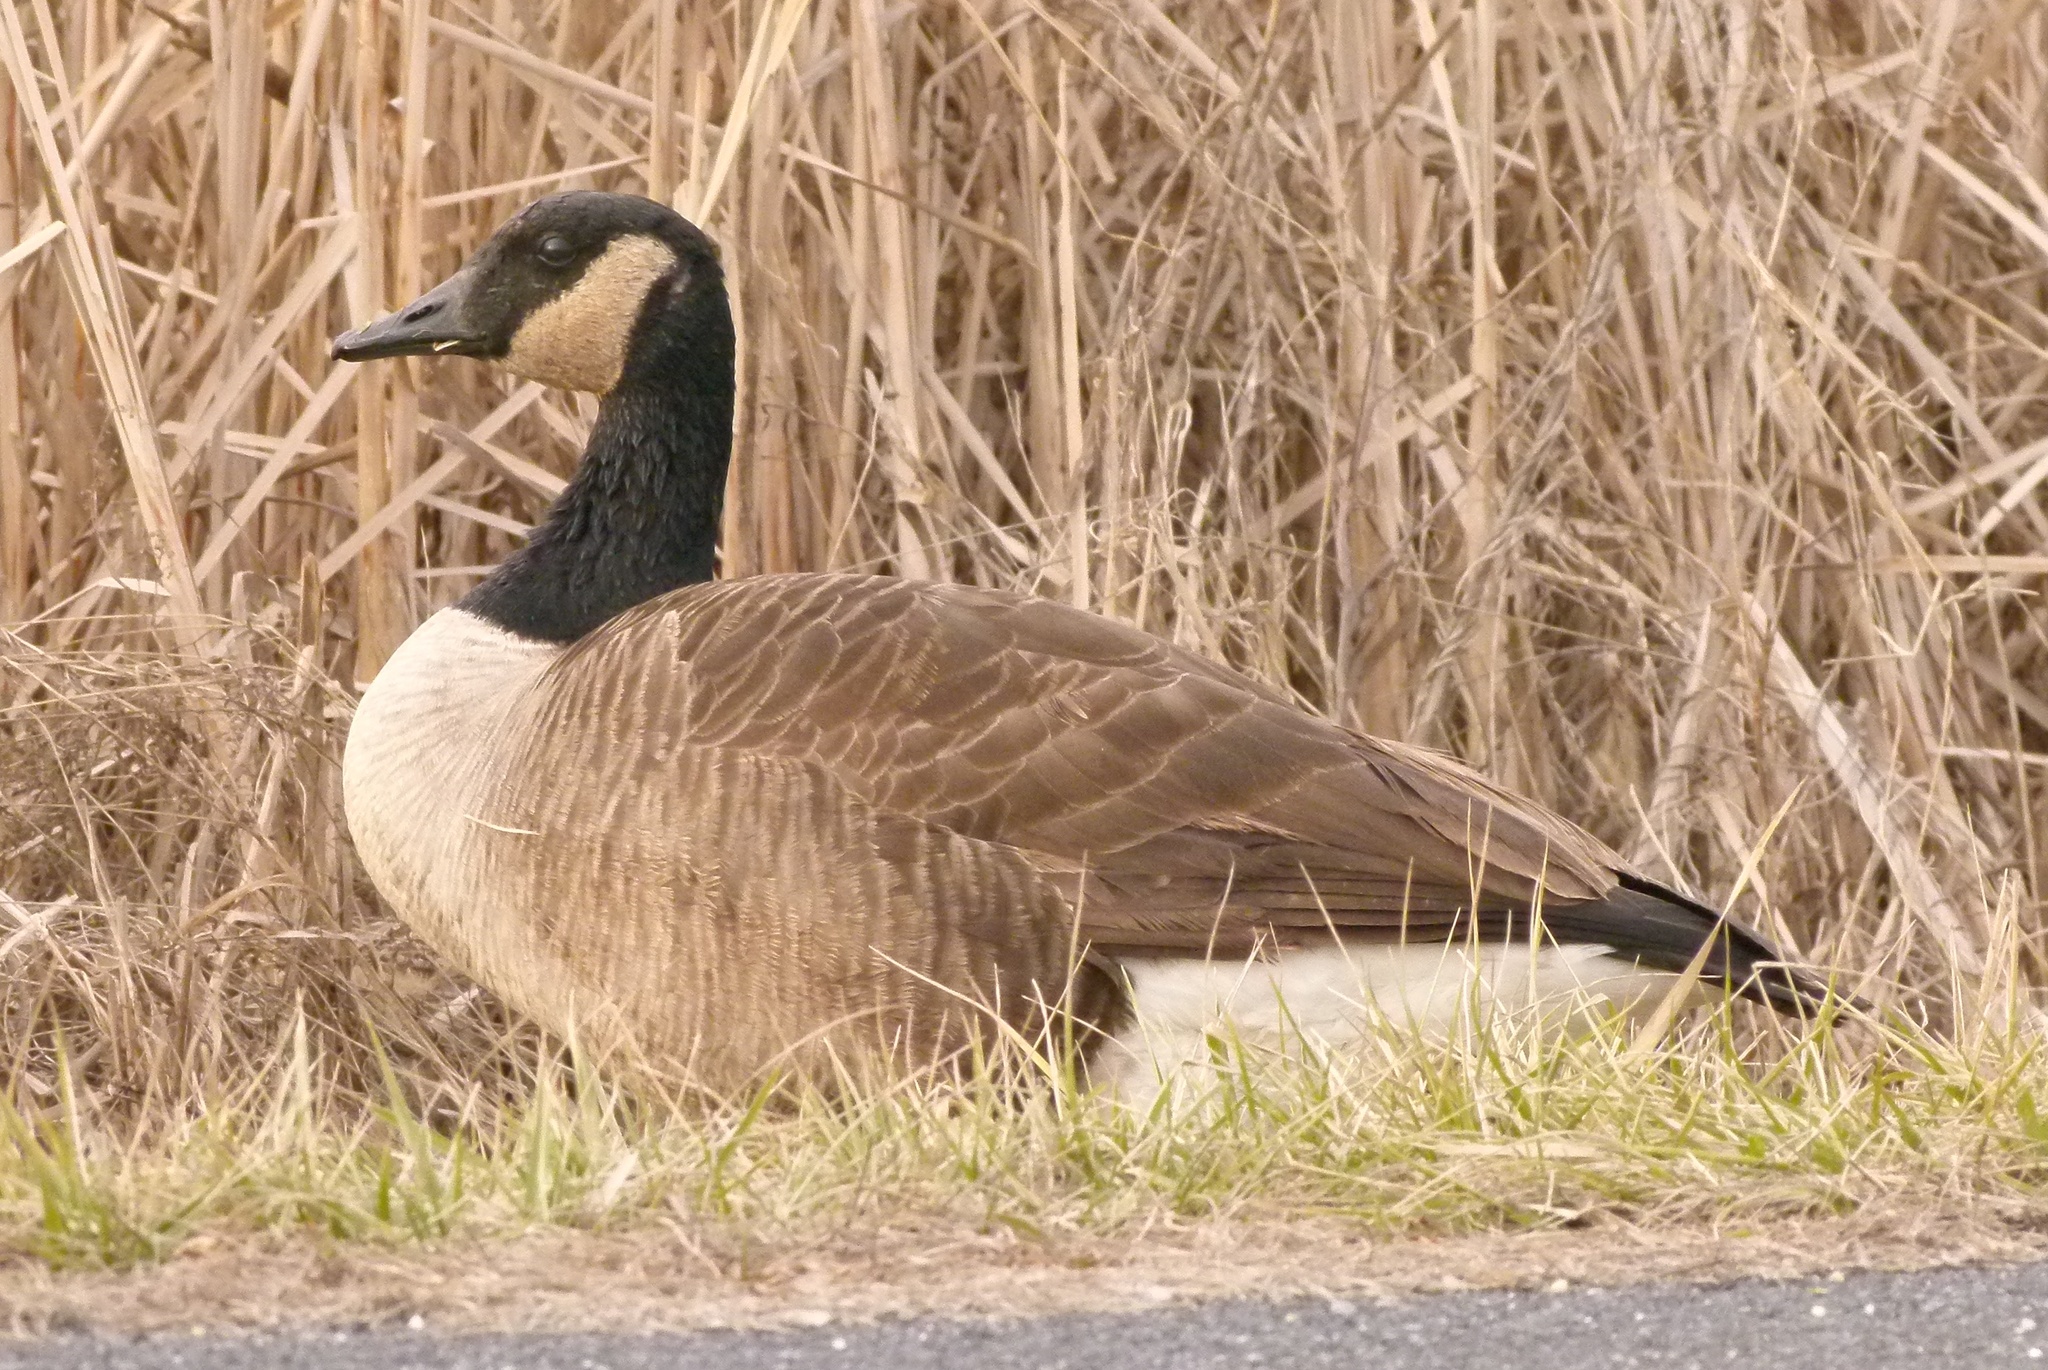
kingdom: Animalia
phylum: Chordata
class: Aves
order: Anseriformes
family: Anatidae
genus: Branta
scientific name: Branta canadensis
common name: Canada goose
